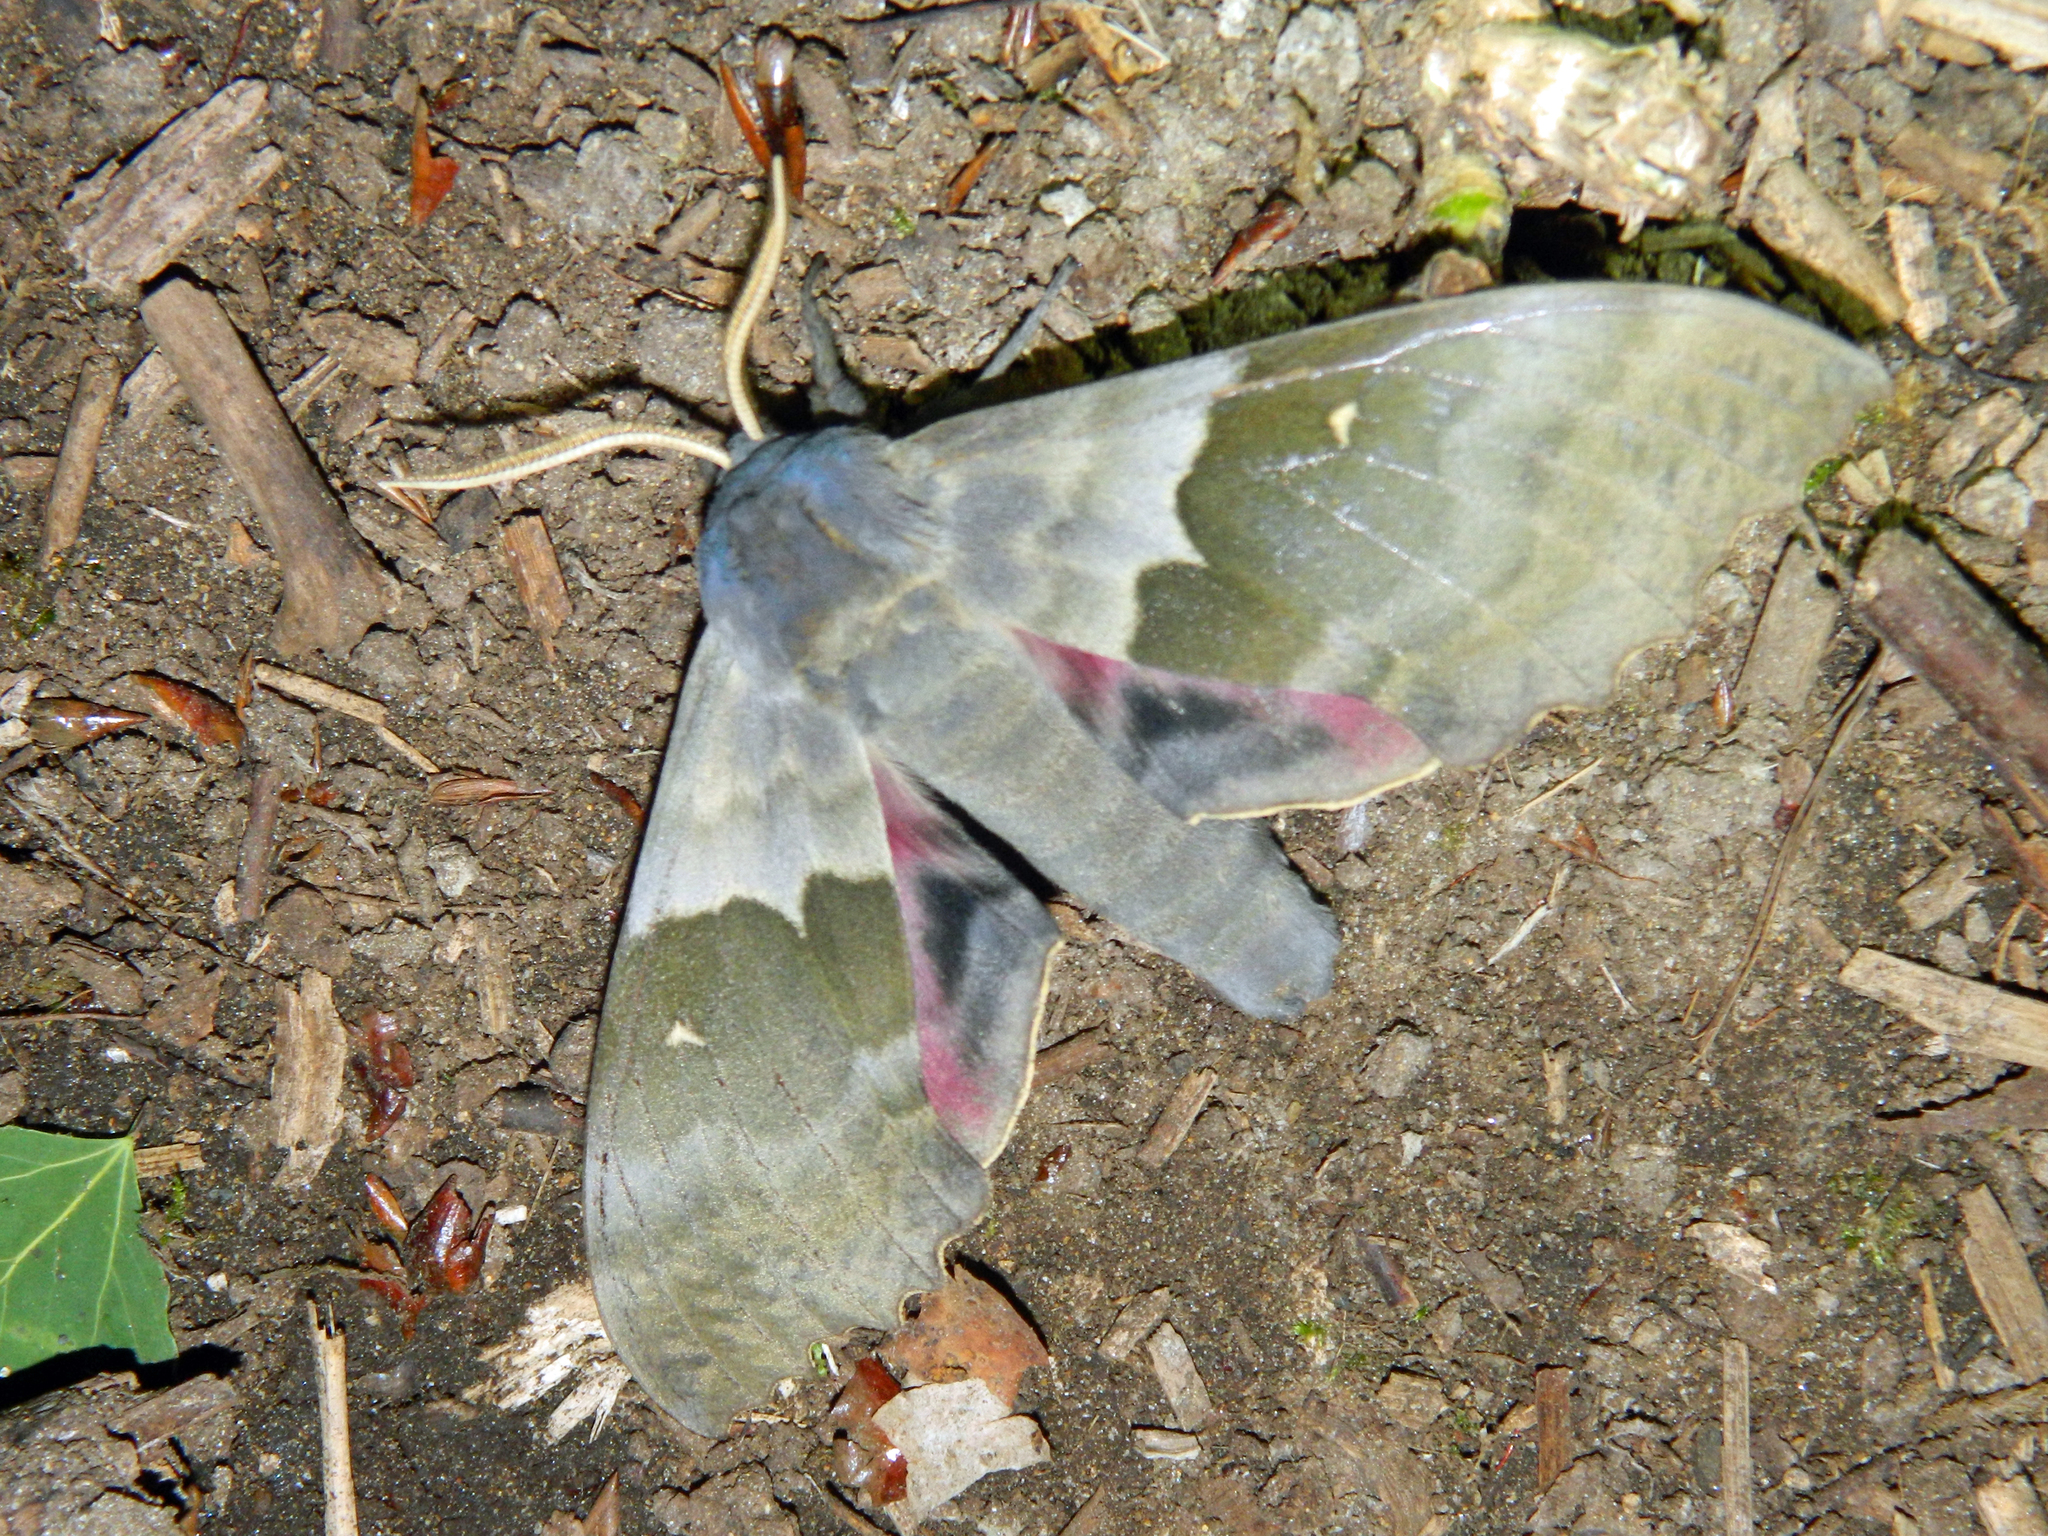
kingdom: Animalia
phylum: Arthropoda
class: Insecta
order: Lepidoptera
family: Sphingidae
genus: Pachysphinx
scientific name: Pachysphinx modesta
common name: Big poplar sphinx
